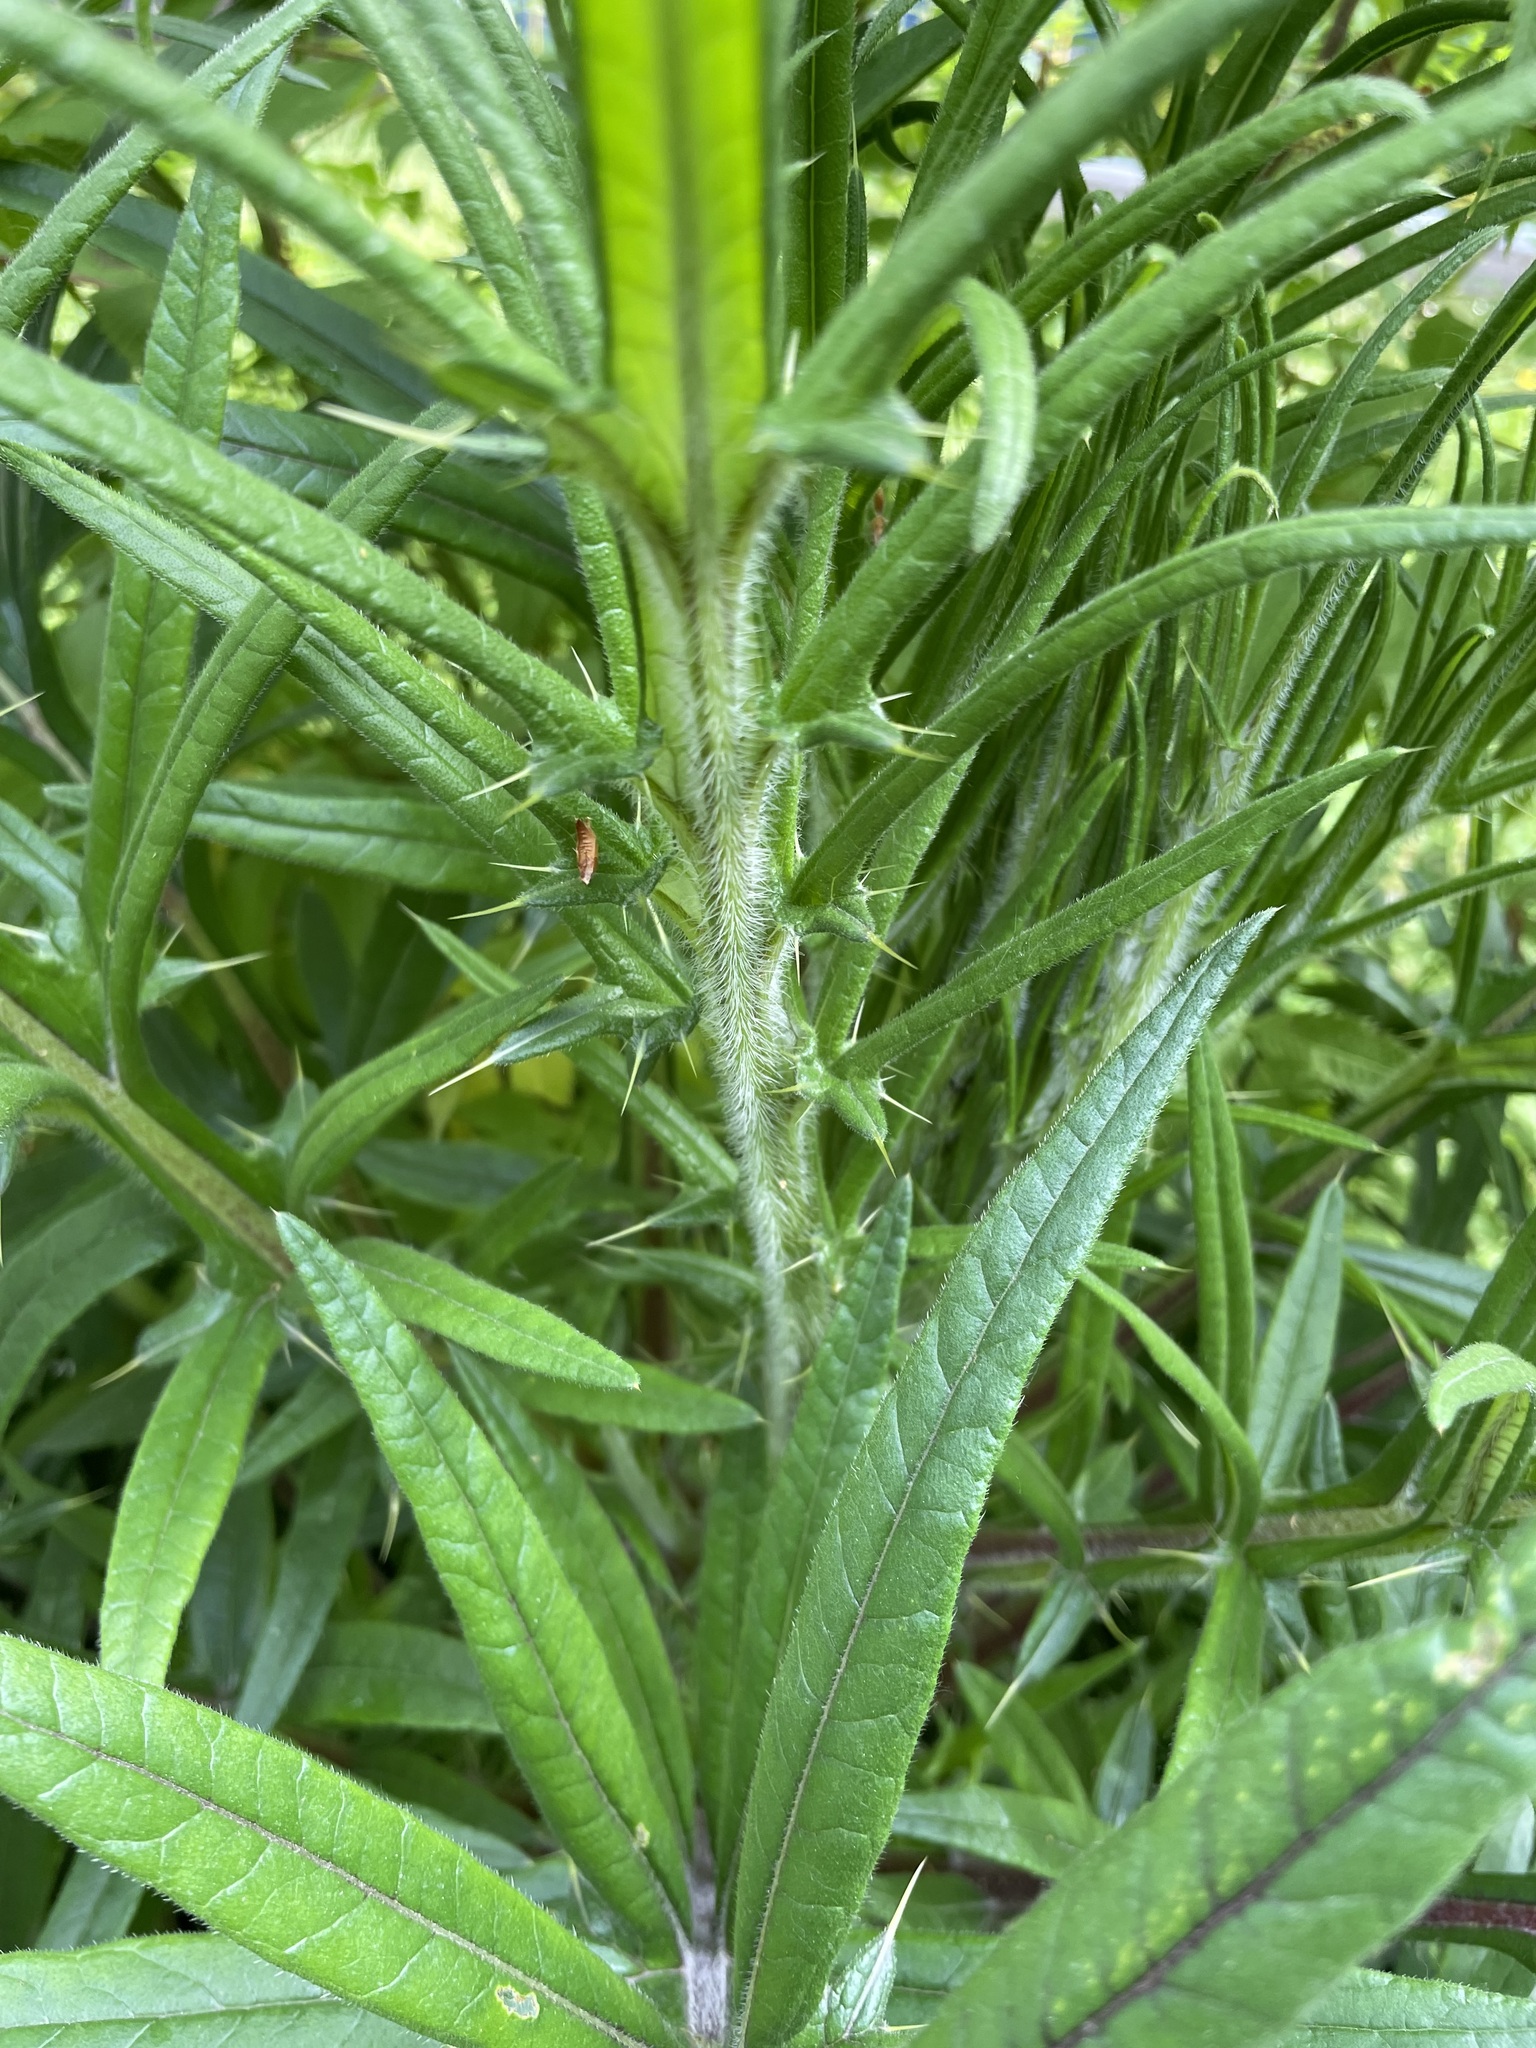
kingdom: Plantae
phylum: Tracheophyta
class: Magnoliopsida
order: Asterales
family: Asteraceae
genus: Lophiolepis
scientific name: Lophiolepis decussata
